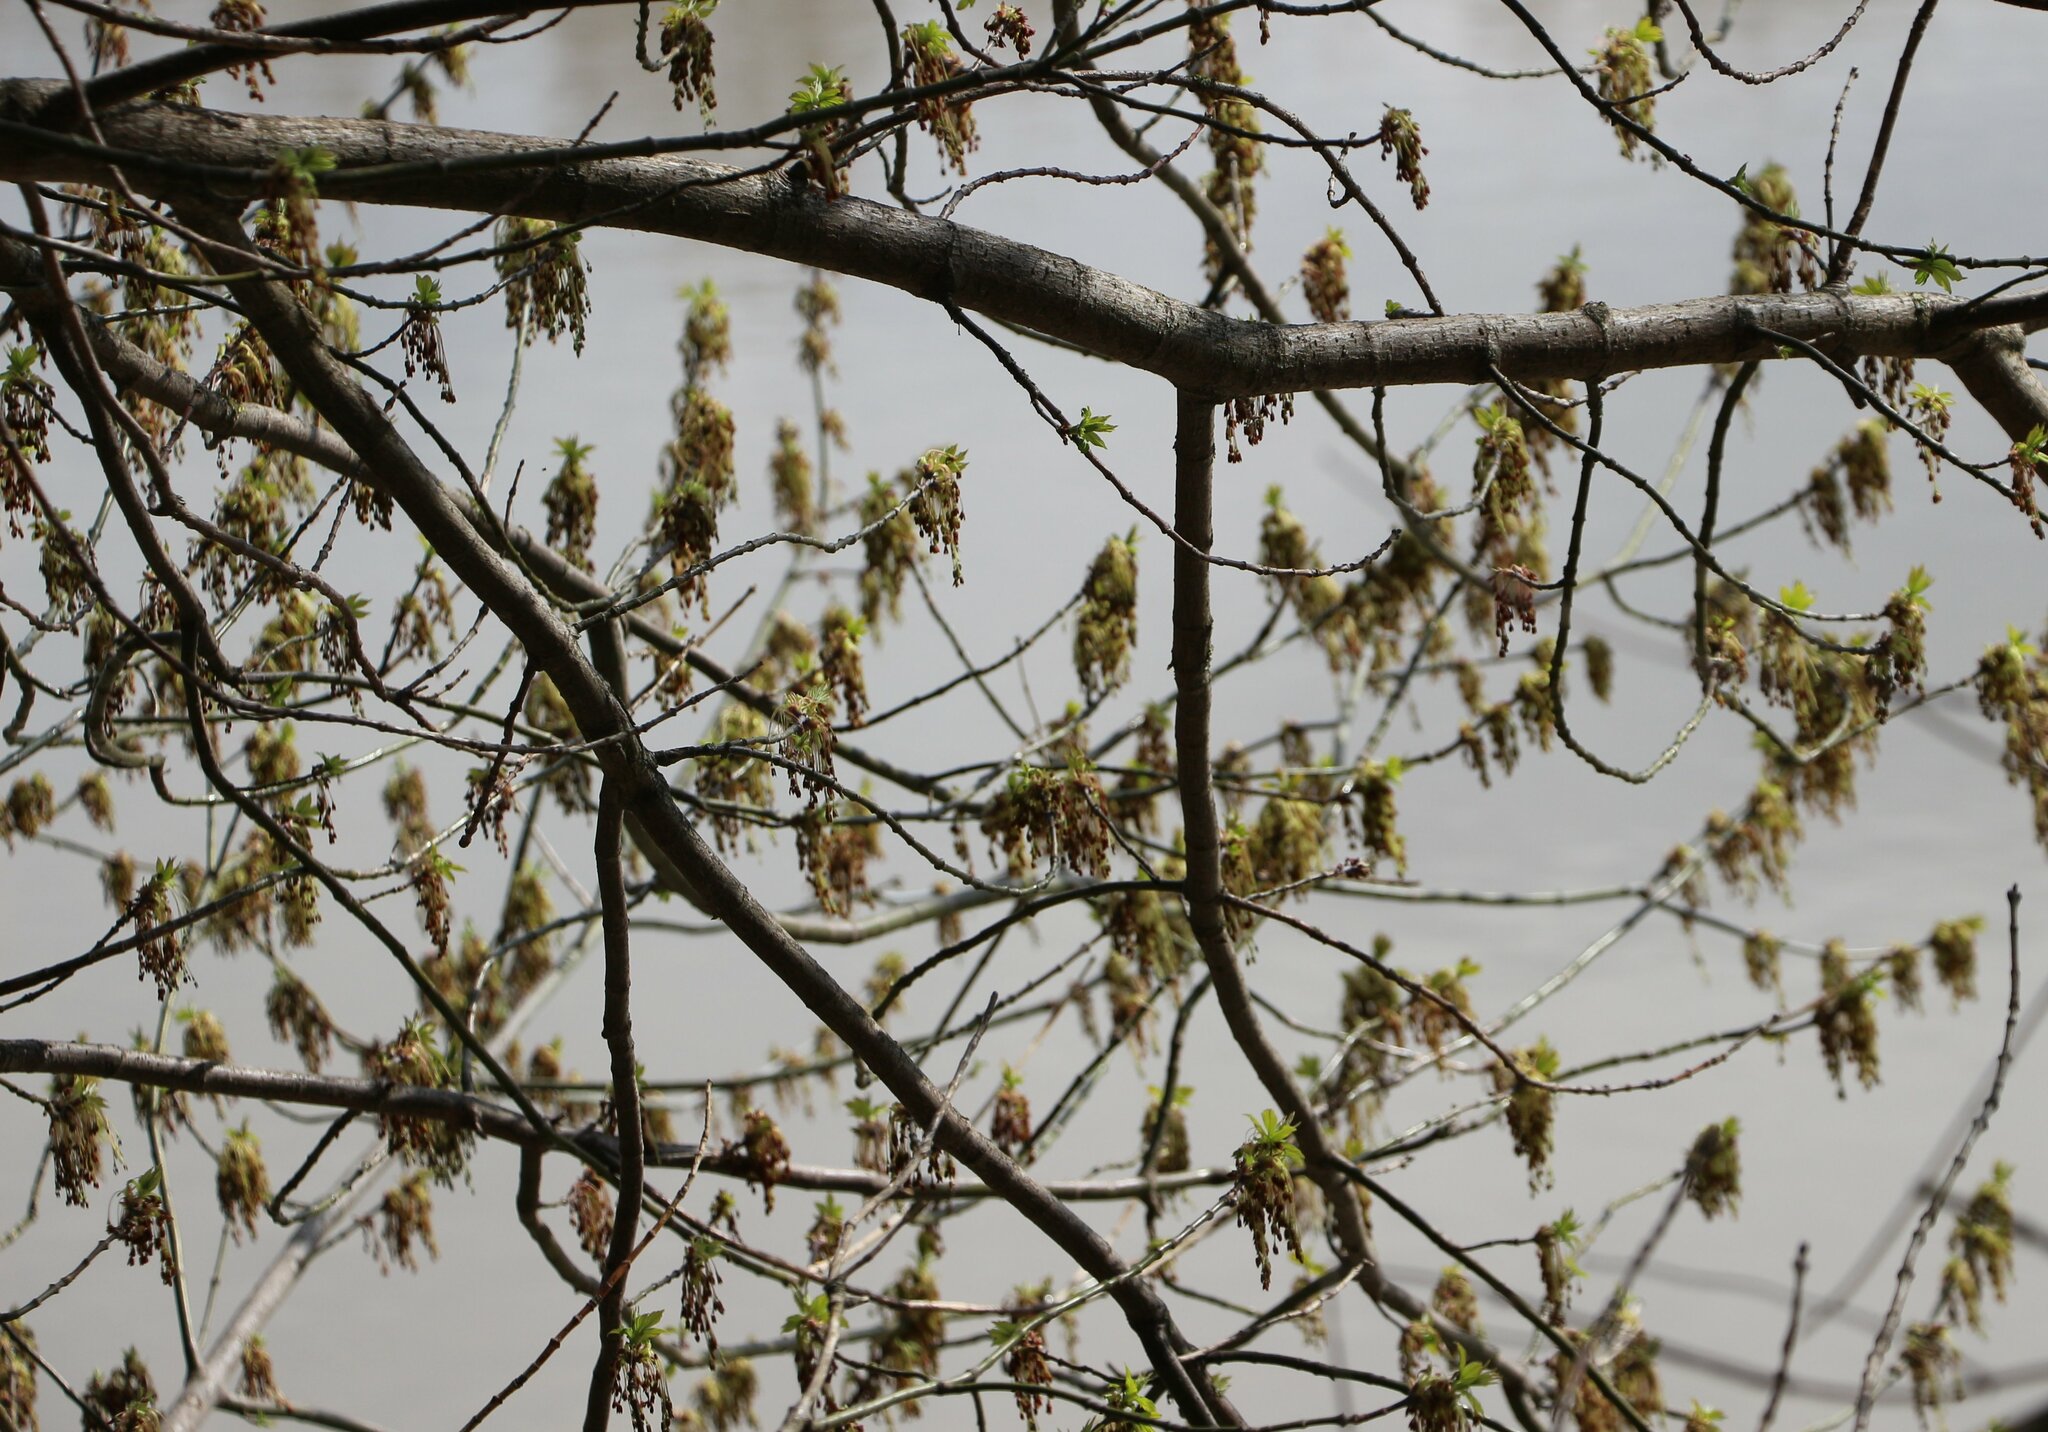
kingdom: Plantae
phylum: Tracheophyta
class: Magnoliopsida
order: Sapindales
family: Sapindaceae
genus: Acer
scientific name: Acer negundo
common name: Ashleaf maple
